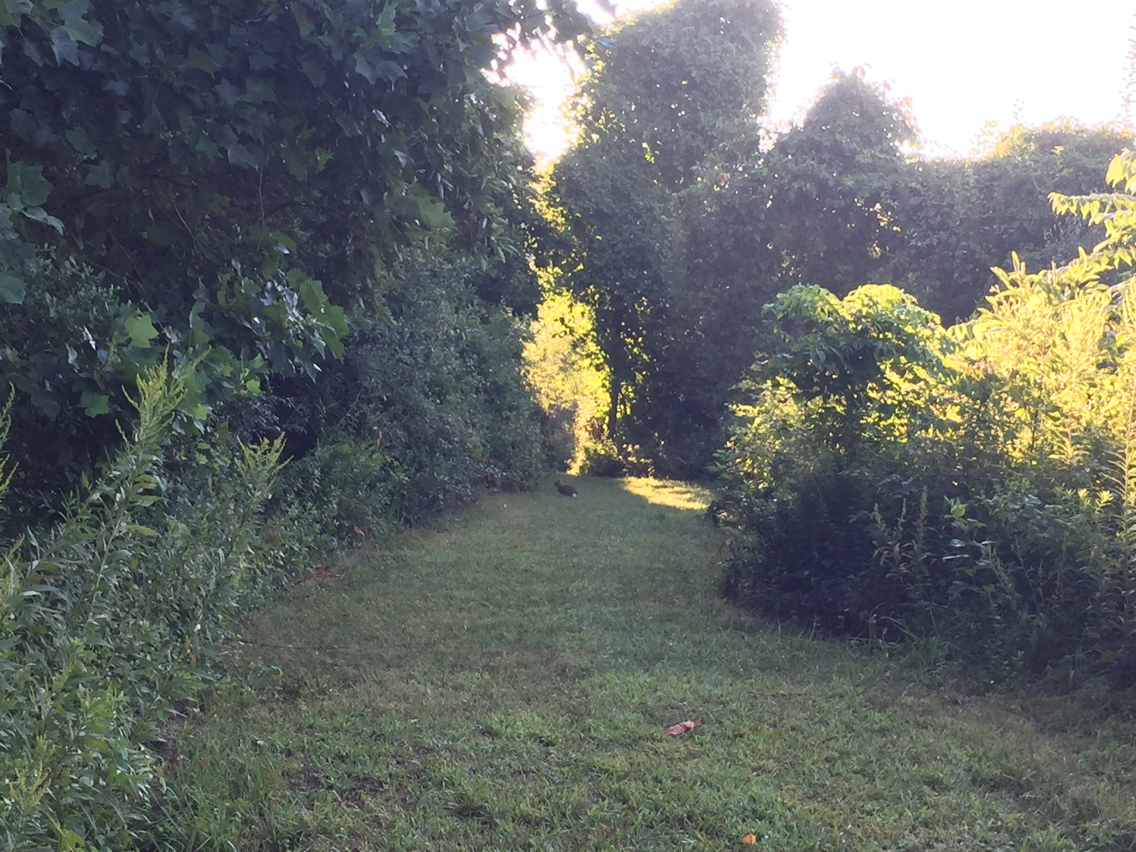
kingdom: Animalia
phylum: Chordata
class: Mammalia
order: Lagomorpha
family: Leporidae
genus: Sylvilagus
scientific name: Sylvilagus floridanus
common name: Eastern cottontail
